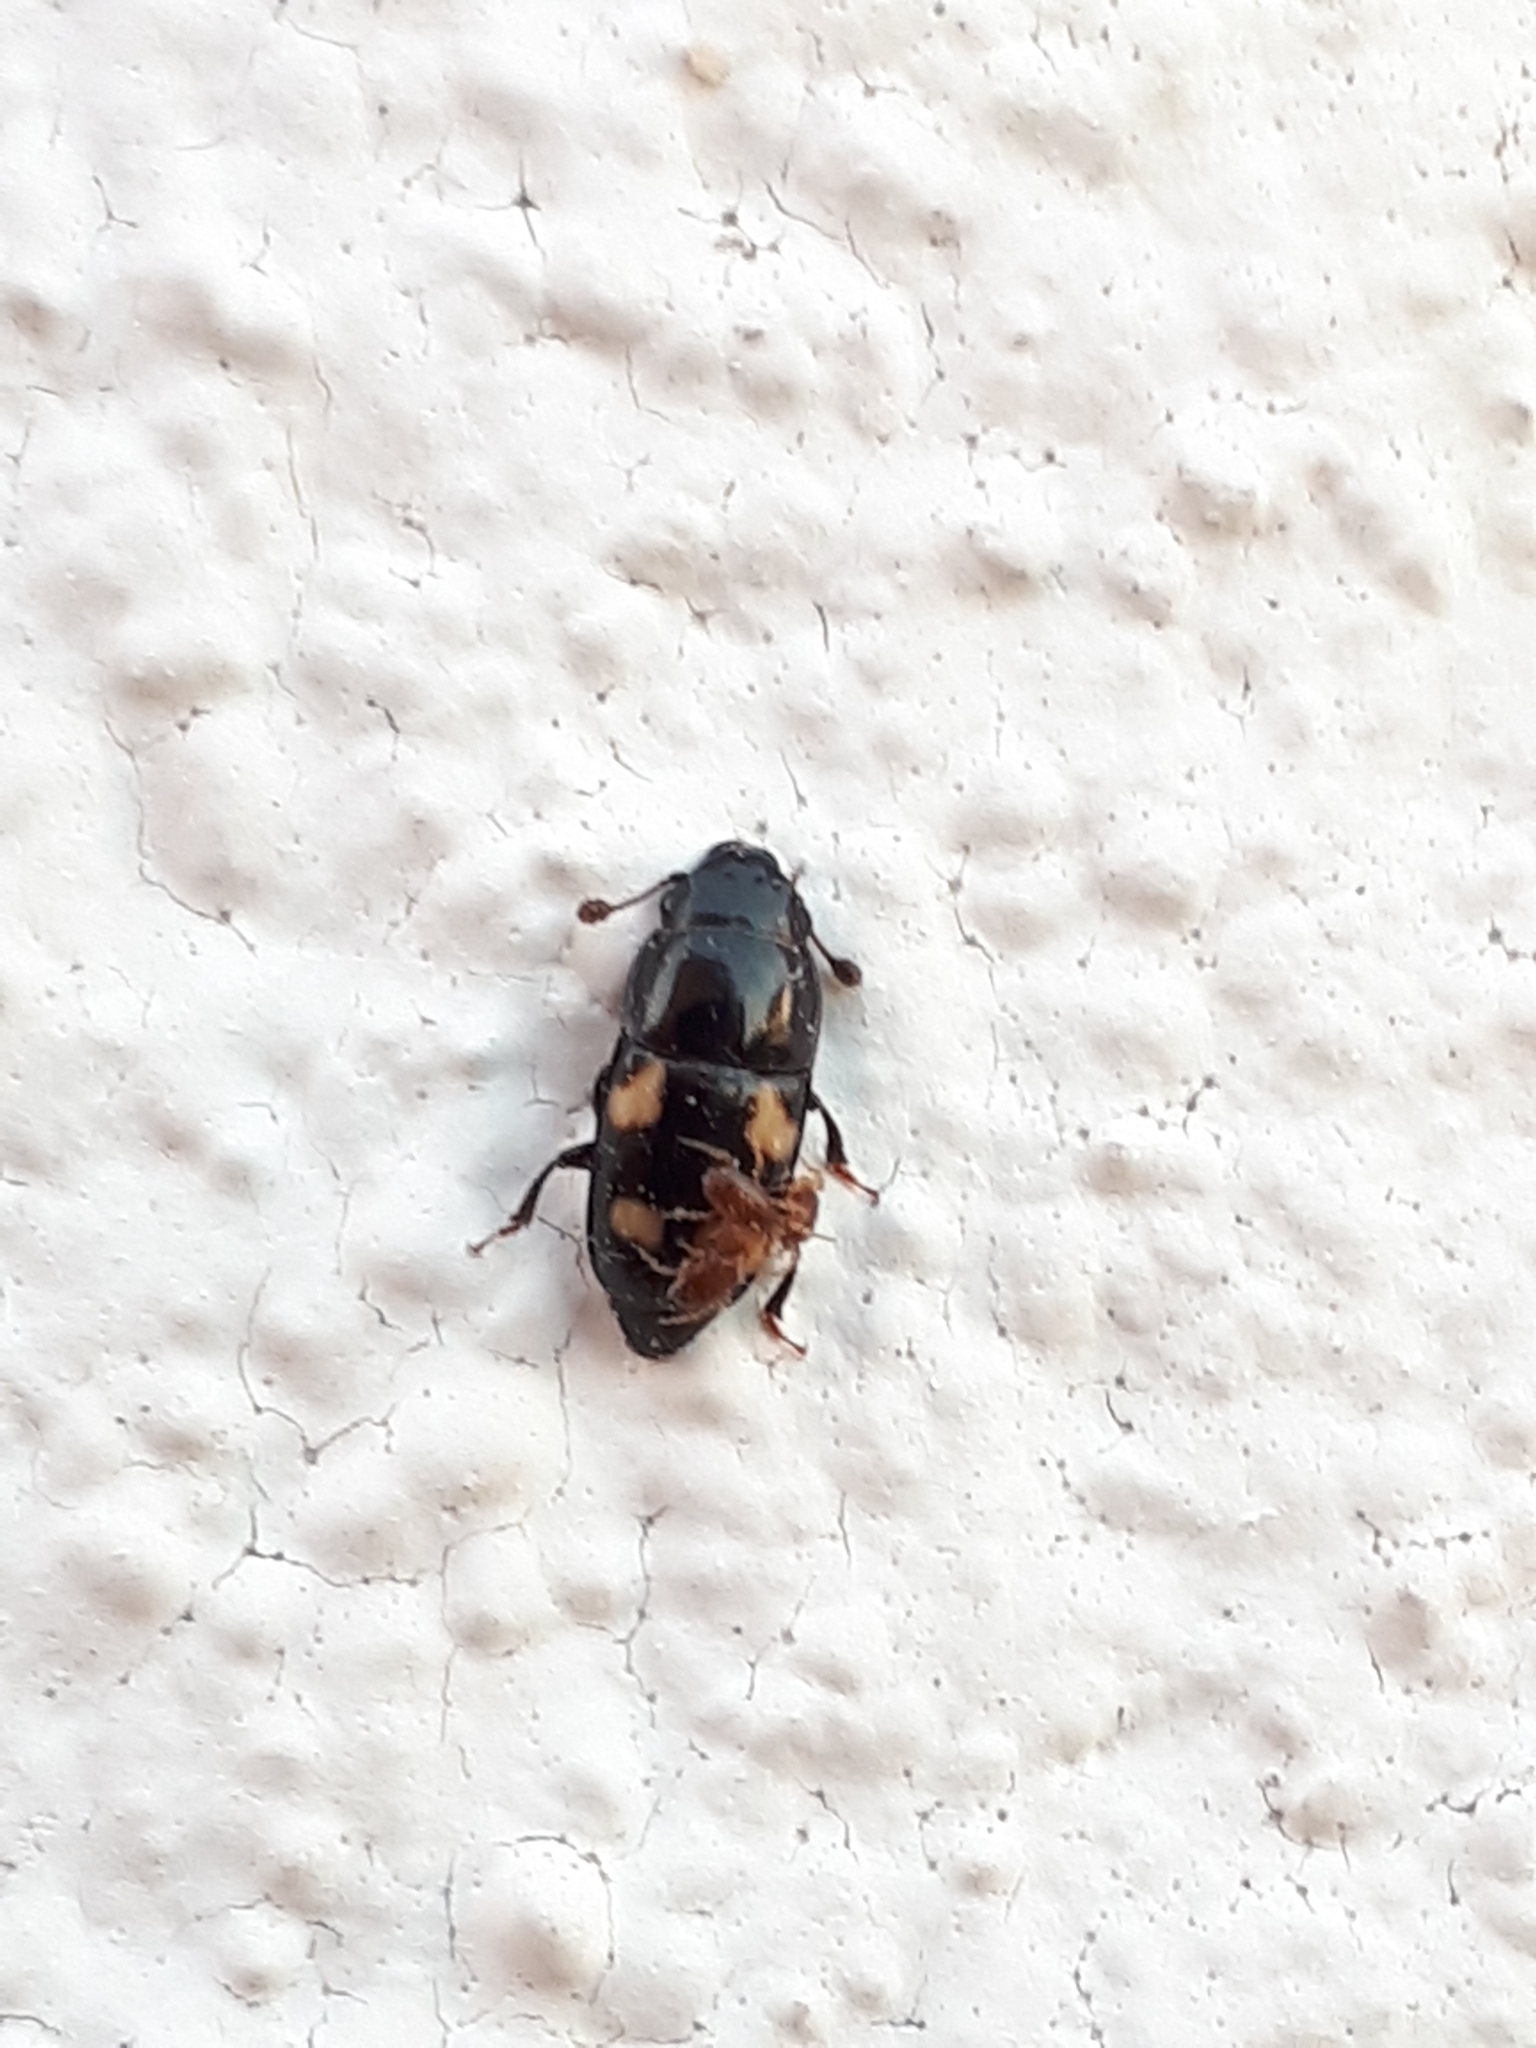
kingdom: Animalia
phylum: Arthropoda
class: Insecta
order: Coleoptera
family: Nitidulidae
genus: Glischrochilus
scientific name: Glischrochilus quadrisignatus
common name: Picnic beetle
